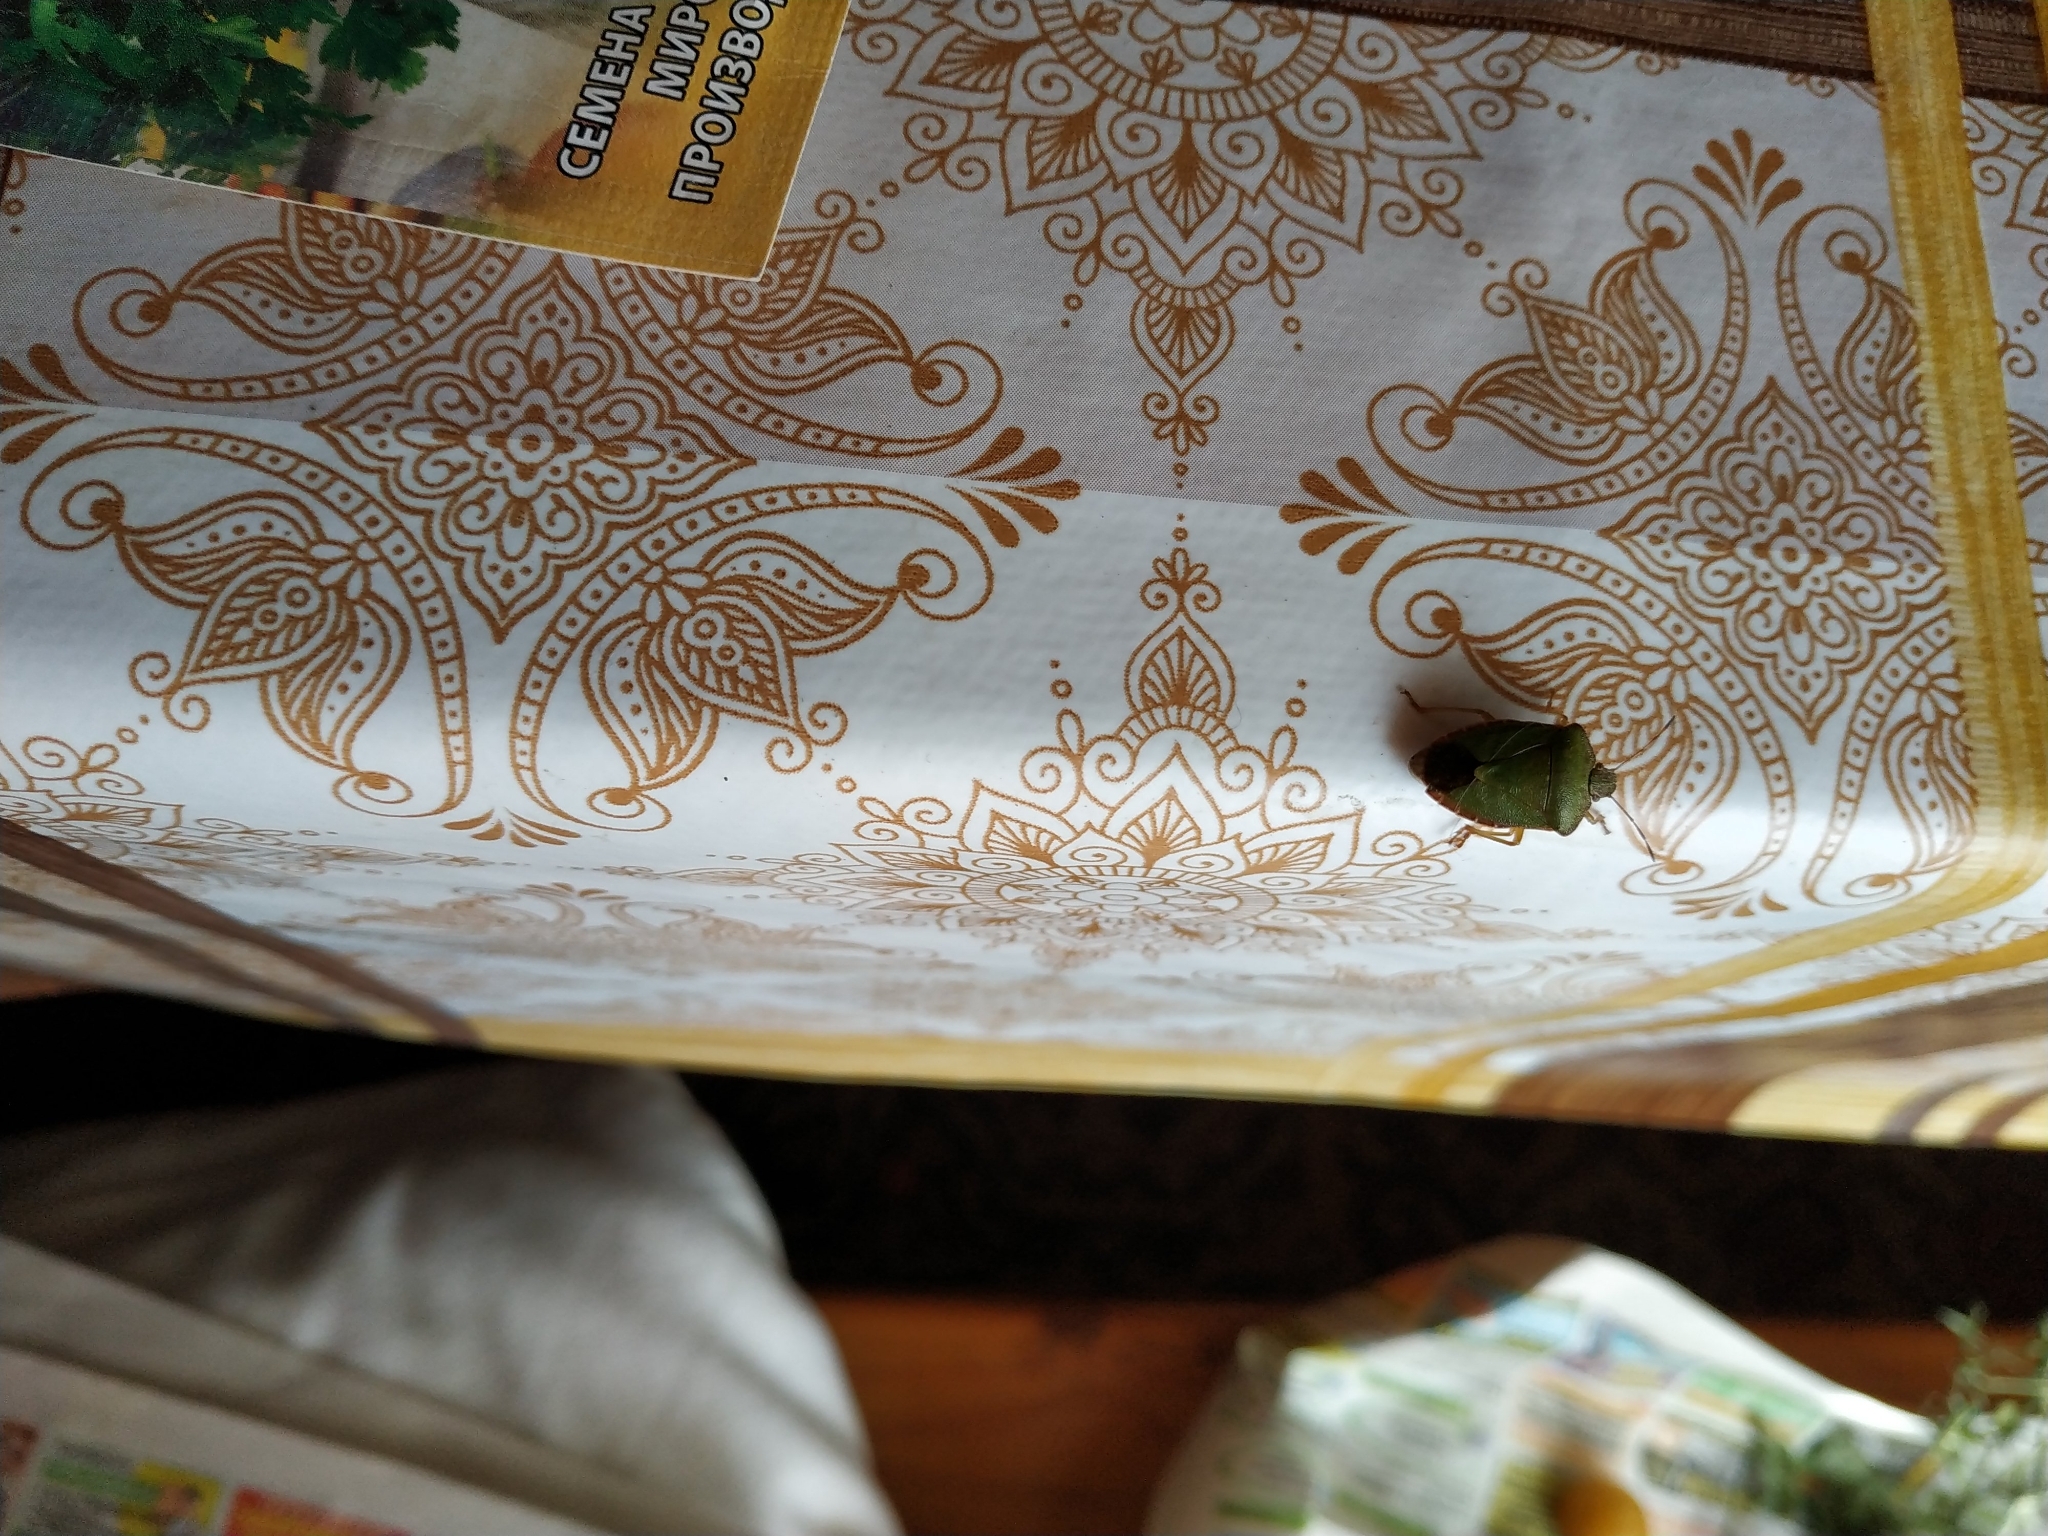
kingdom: Animalia
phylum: Arthropoda
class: Insecta
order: Hemiptera
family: Pentatomidae
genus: Palomena
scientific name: Palomena prasina
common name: Green shieldbug
